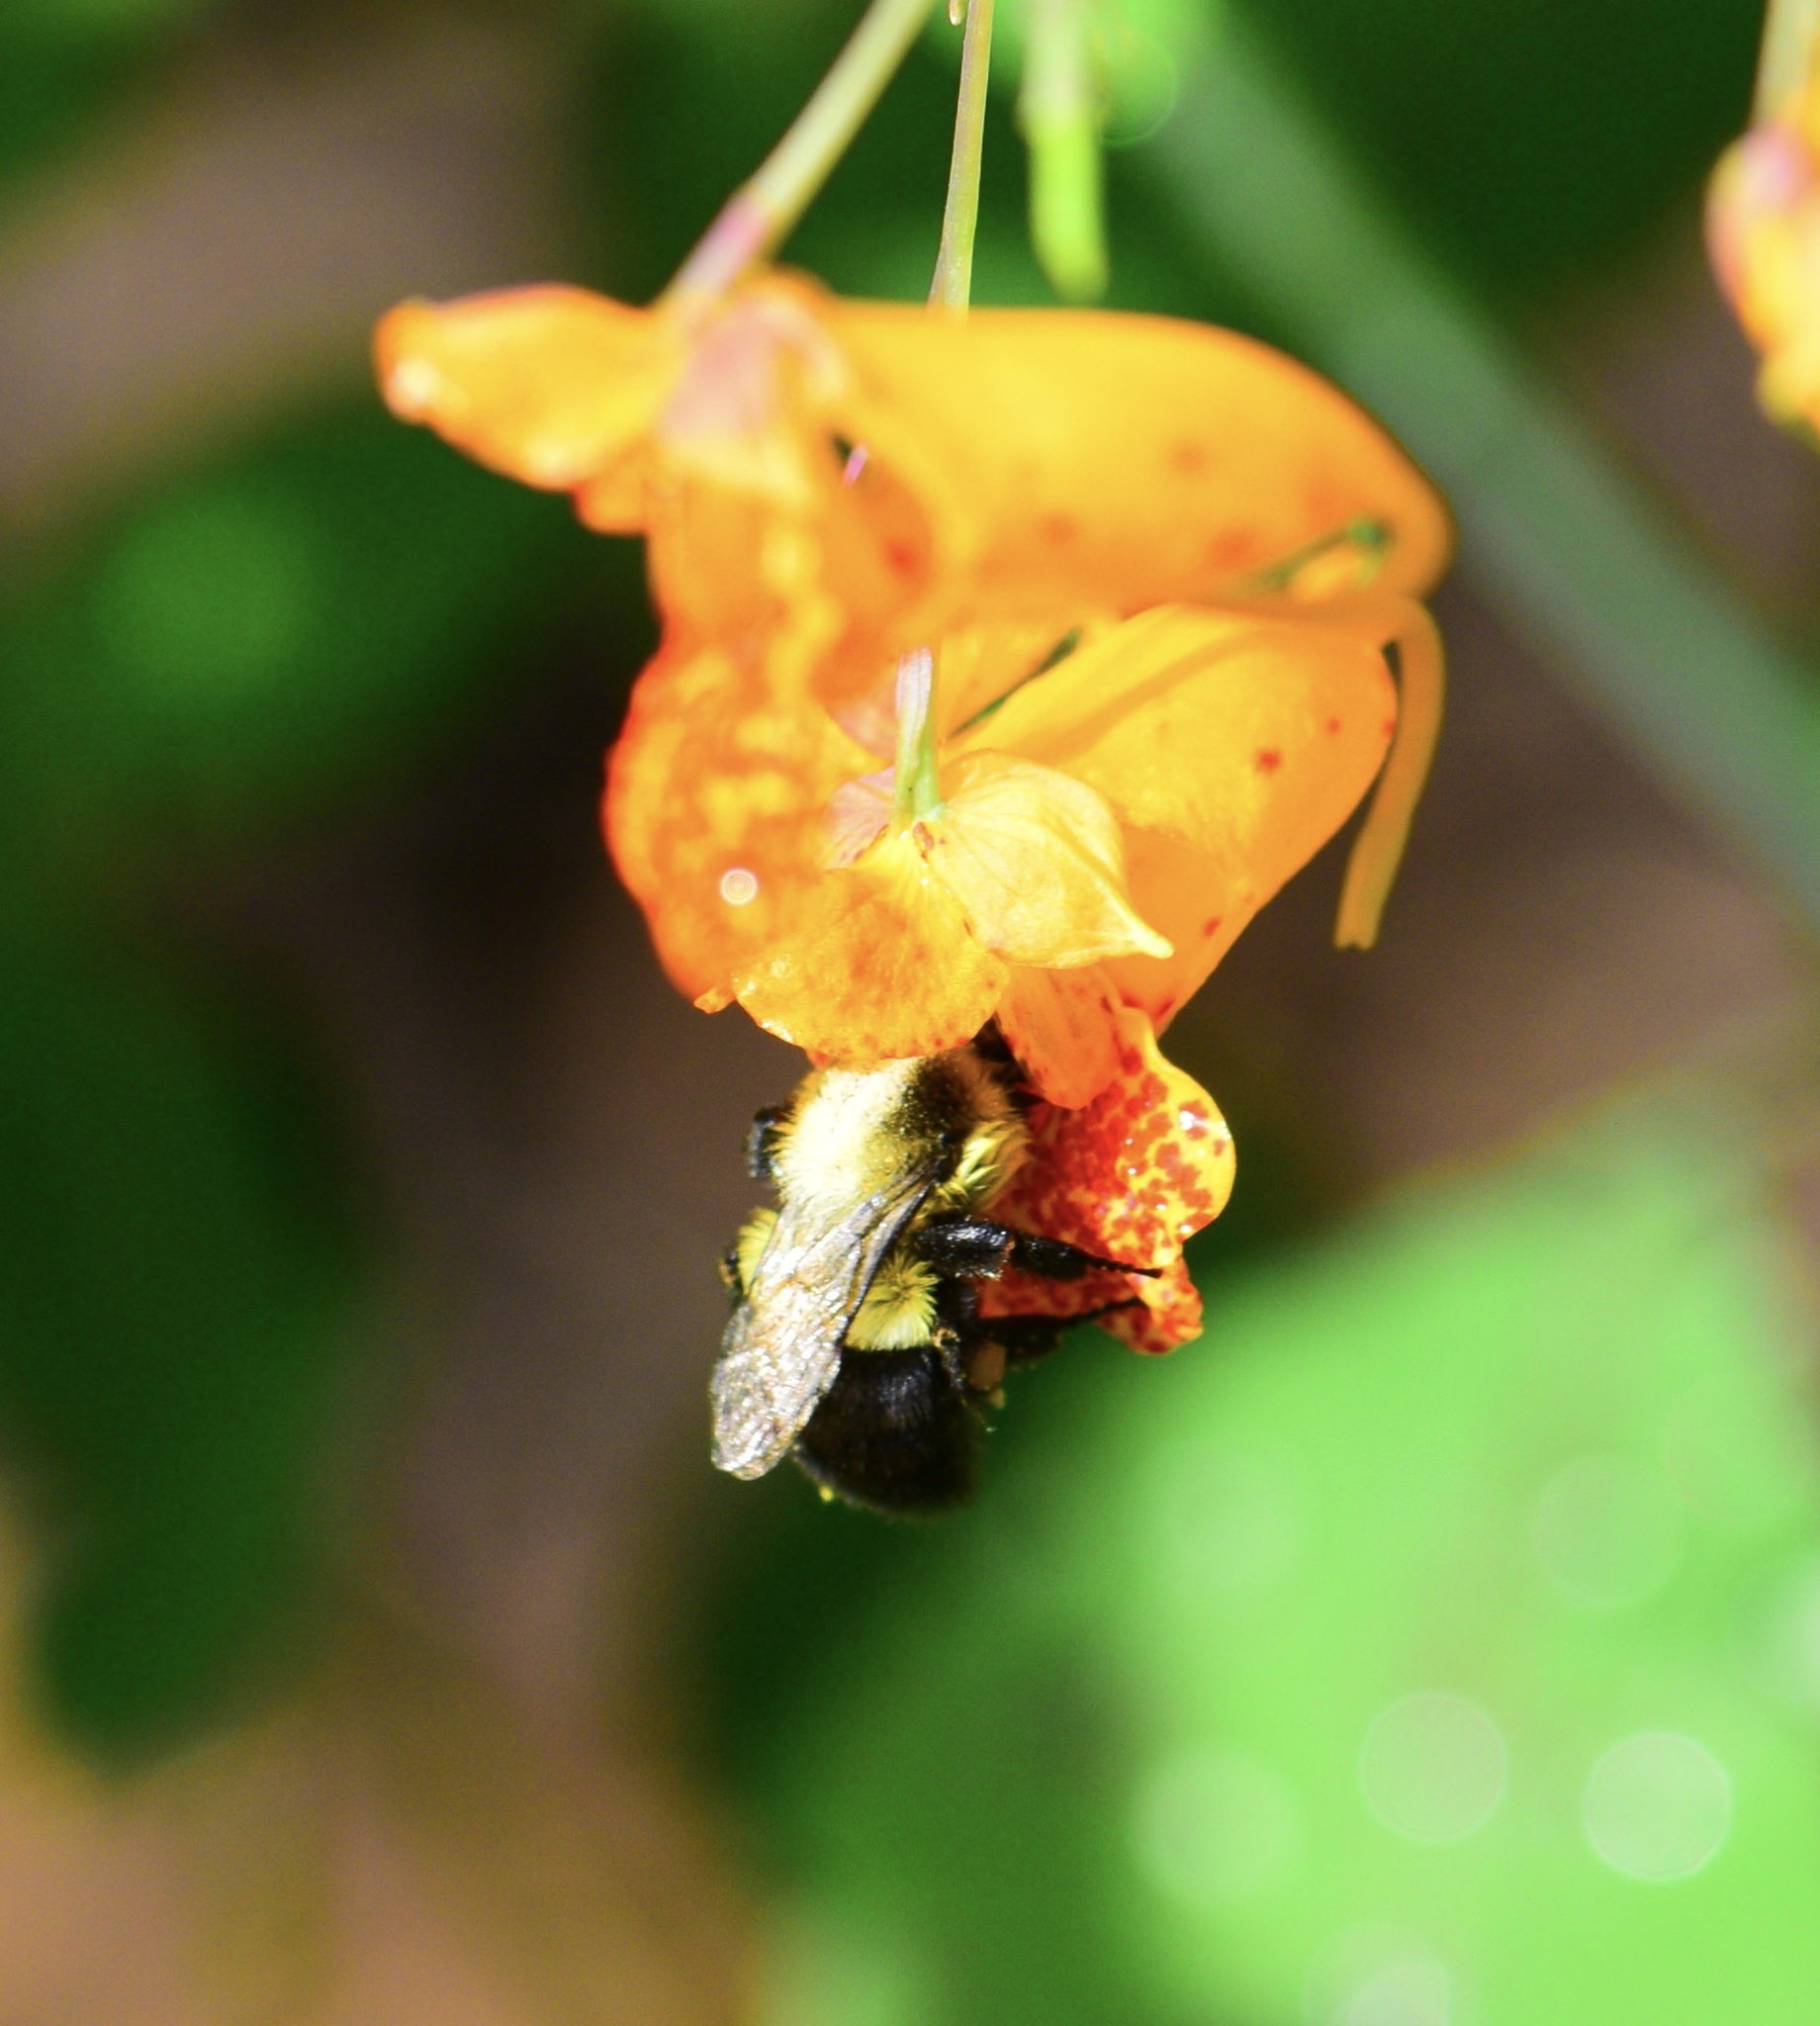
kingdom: Animalia
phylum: Arthropoda
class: Insecta
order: Hymenoptera
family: Apidae
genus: Bombus
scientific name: Bombus impatiens
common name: Common eastern bumble bee
